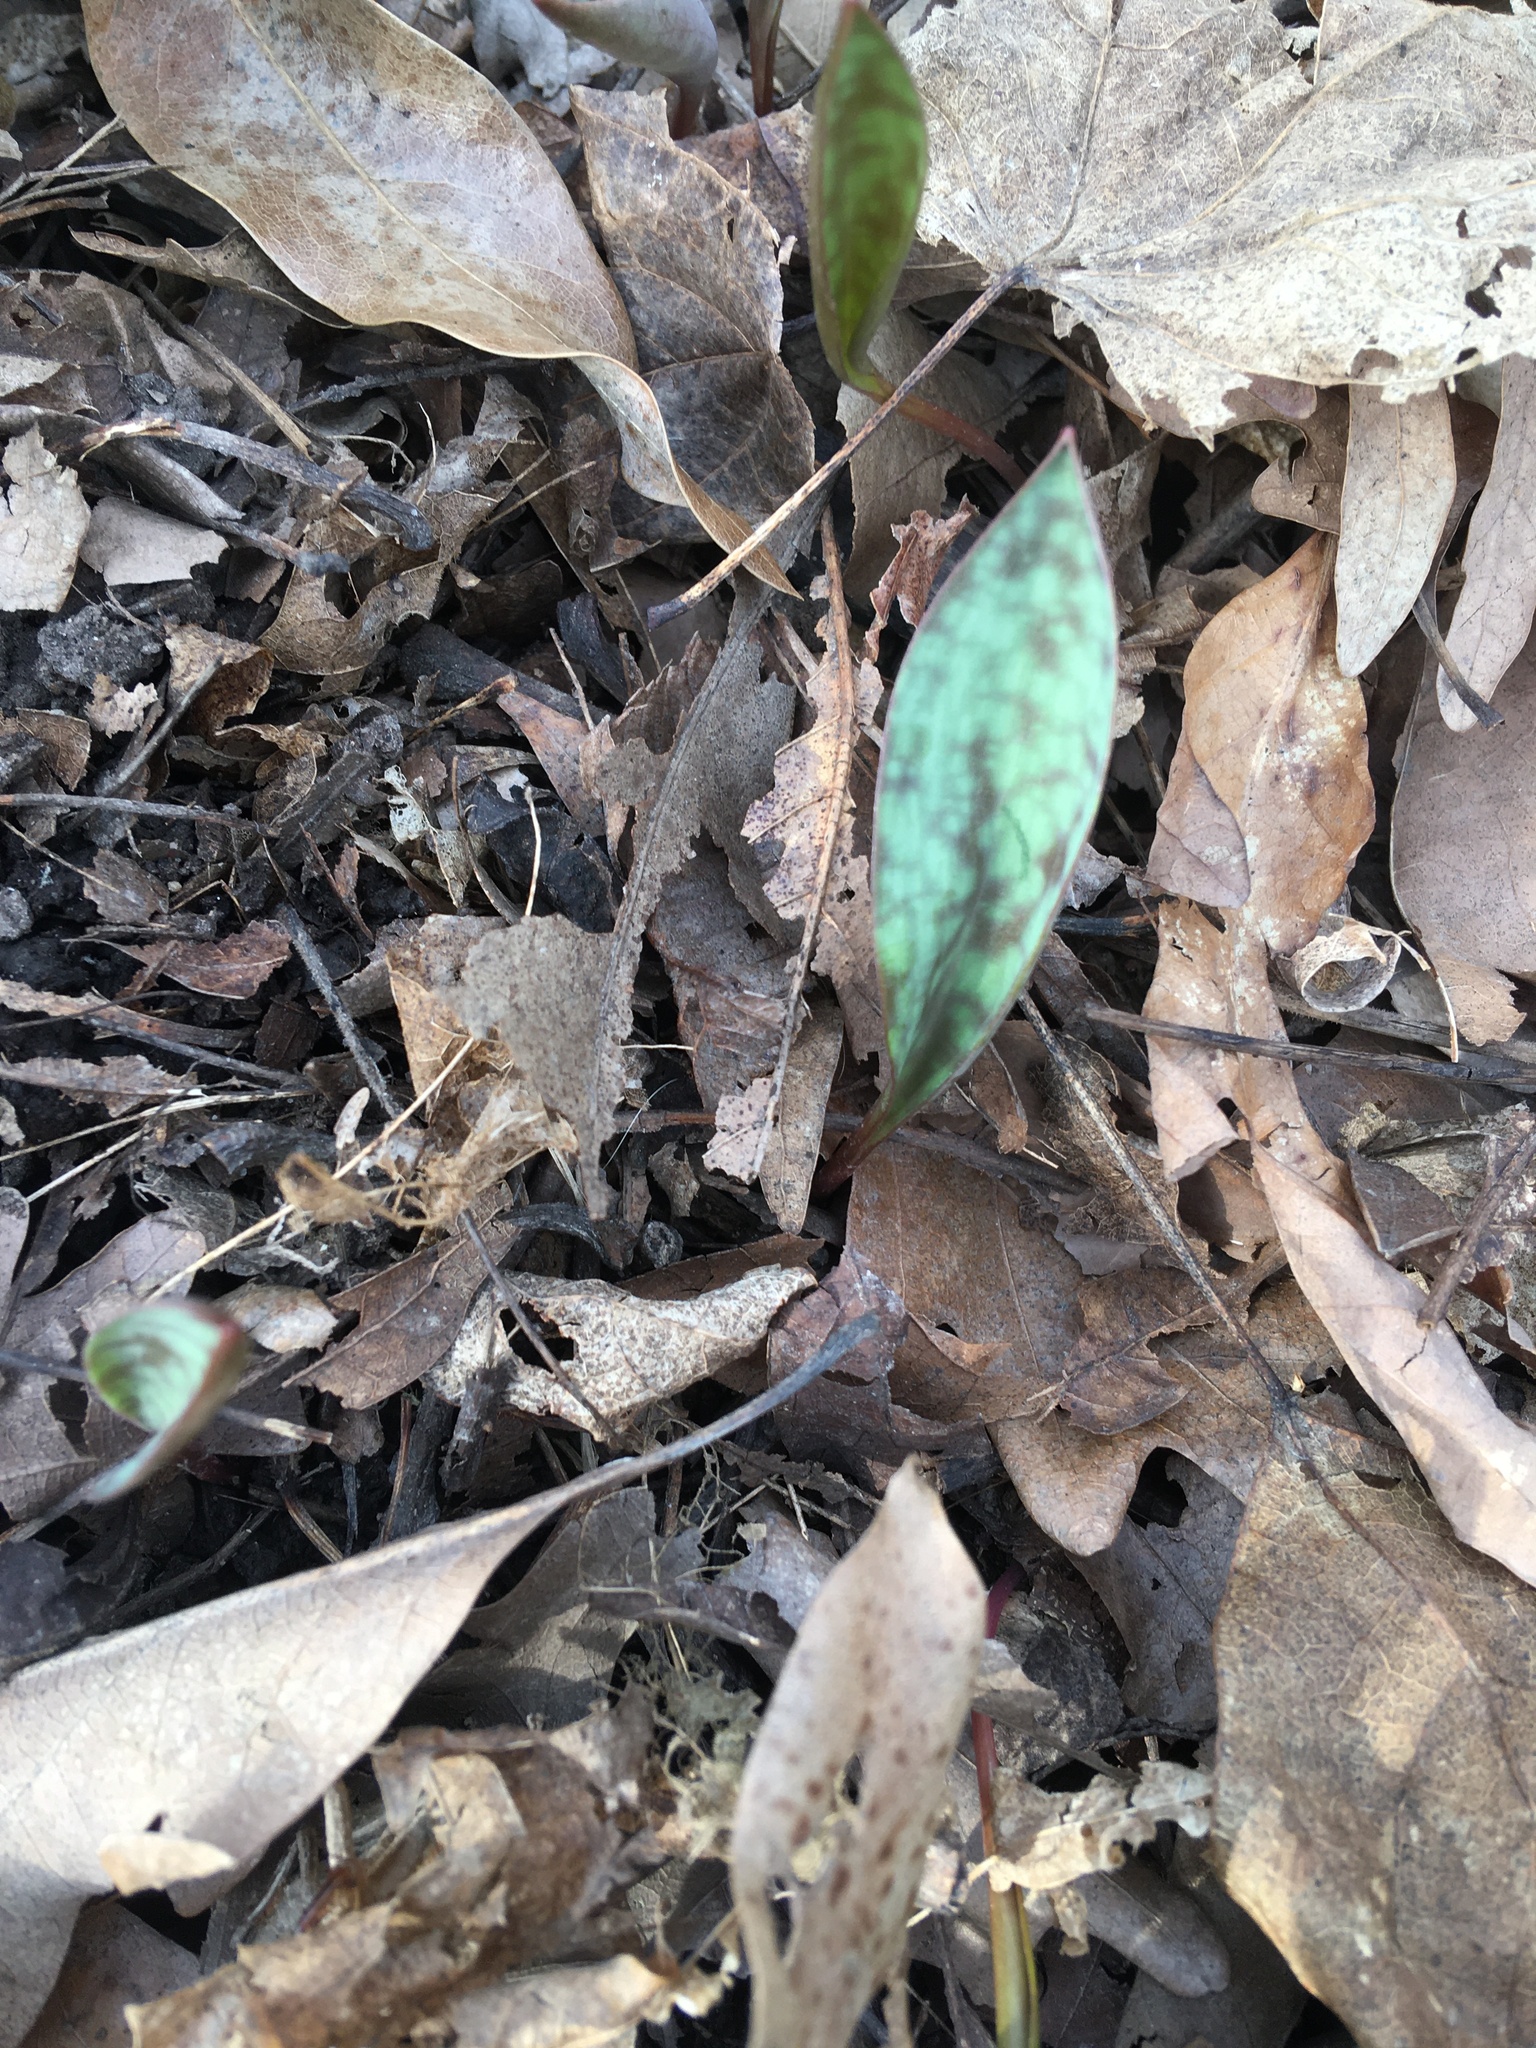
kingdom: Plantae
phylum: Tracheophyta
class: Liliopsida
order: Liliales
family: Liliaceae
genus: Erythronium
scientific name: Erythronium
